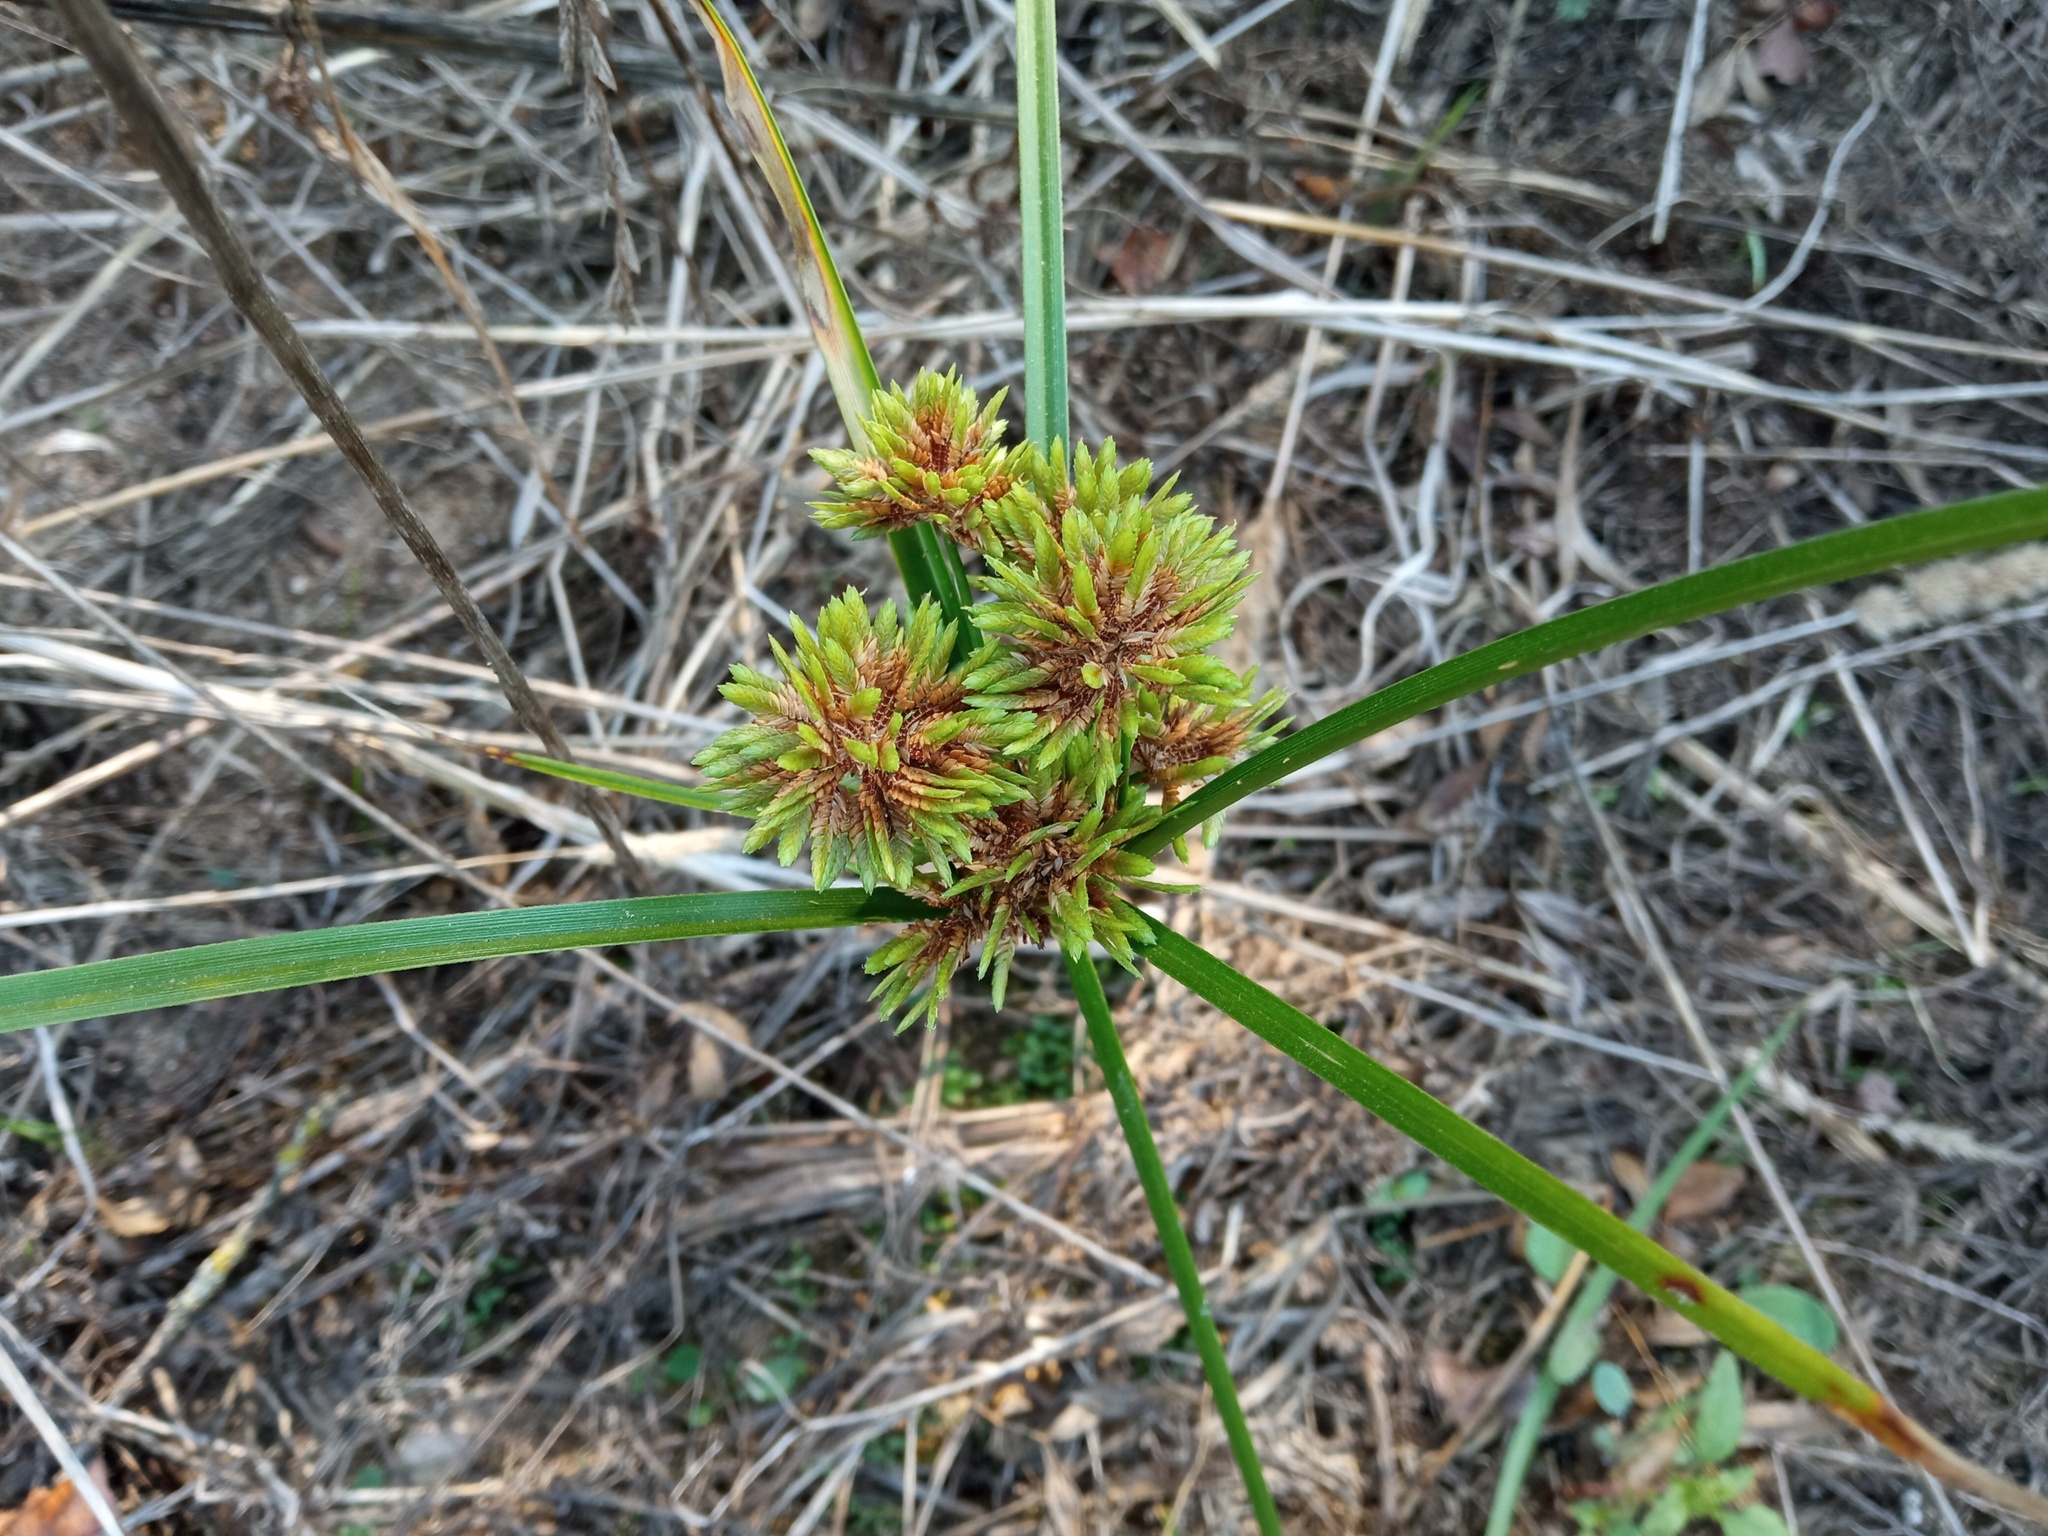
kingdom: Plantae
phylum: Tracheophyta
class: Liliopsida
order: Poales
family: Cyperaceae
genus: Cyperus
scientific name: Cyperus eragrostis
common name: Tall flatsedge
